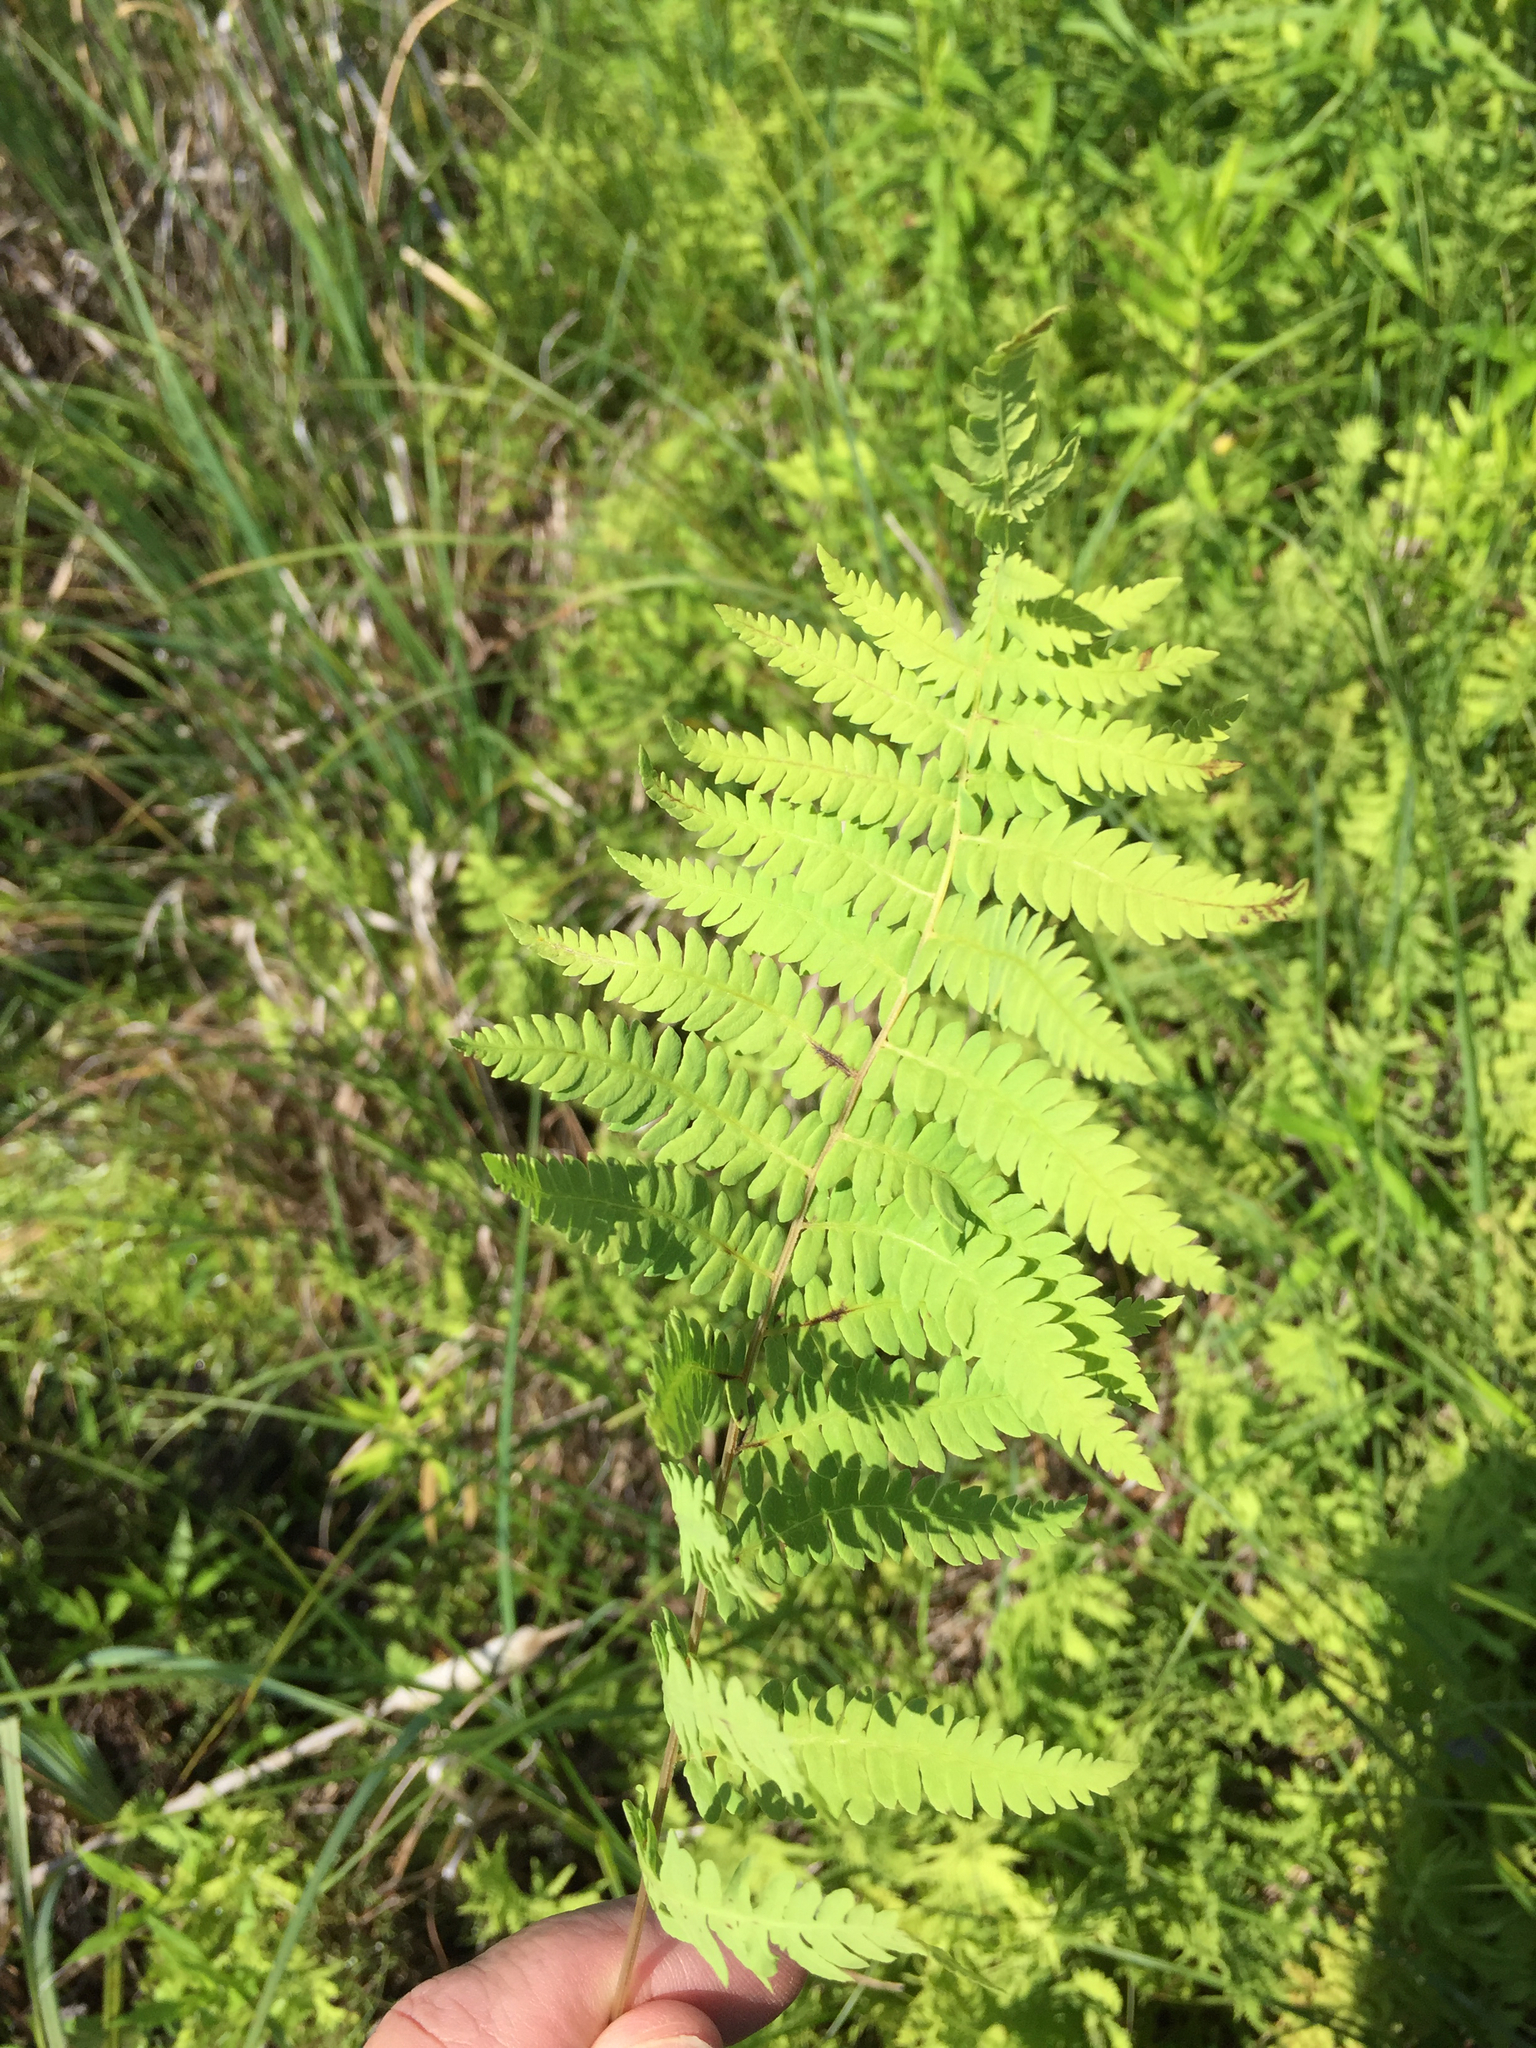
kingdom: Plantae
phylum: Tracheophyta
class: Polypodiopsida
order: Polypodiales
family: Thelypteridaceae
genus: Thelypteris
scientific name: Thelypteris palustris
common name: Marsh fern
